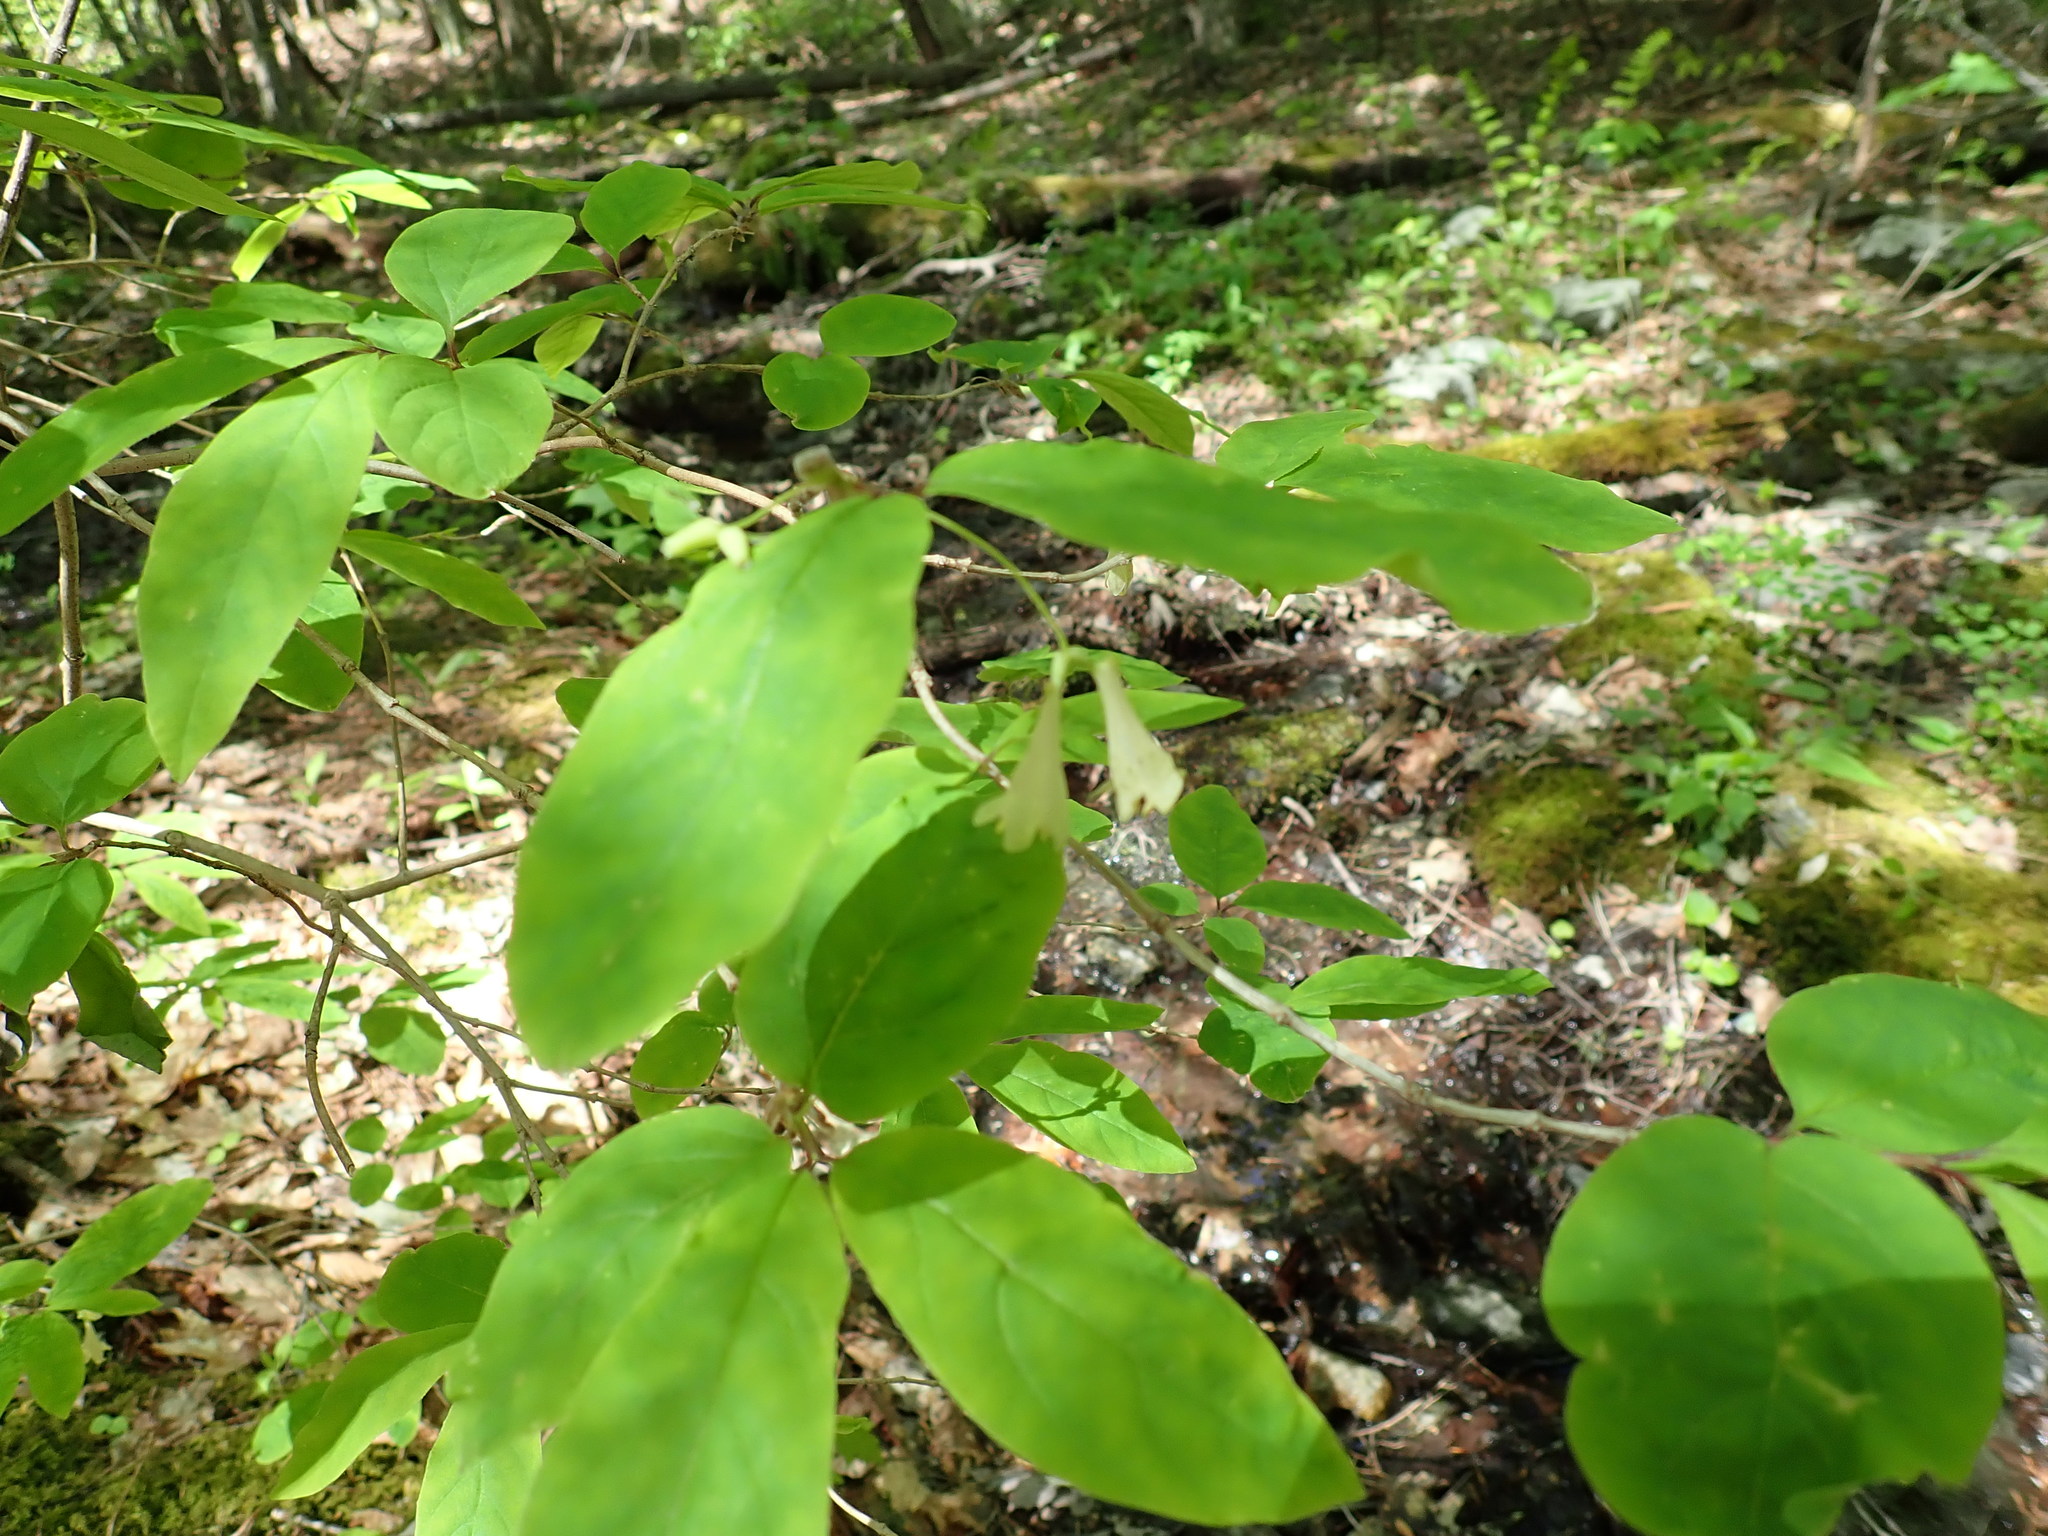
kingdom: Plantae
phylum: Tracheophyta
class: Magnoliopsida
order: Dipsacales
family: Caprifoliaceae
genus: Lonicera
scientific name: Lonicera canadensis
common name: American fly-honeysuckle
